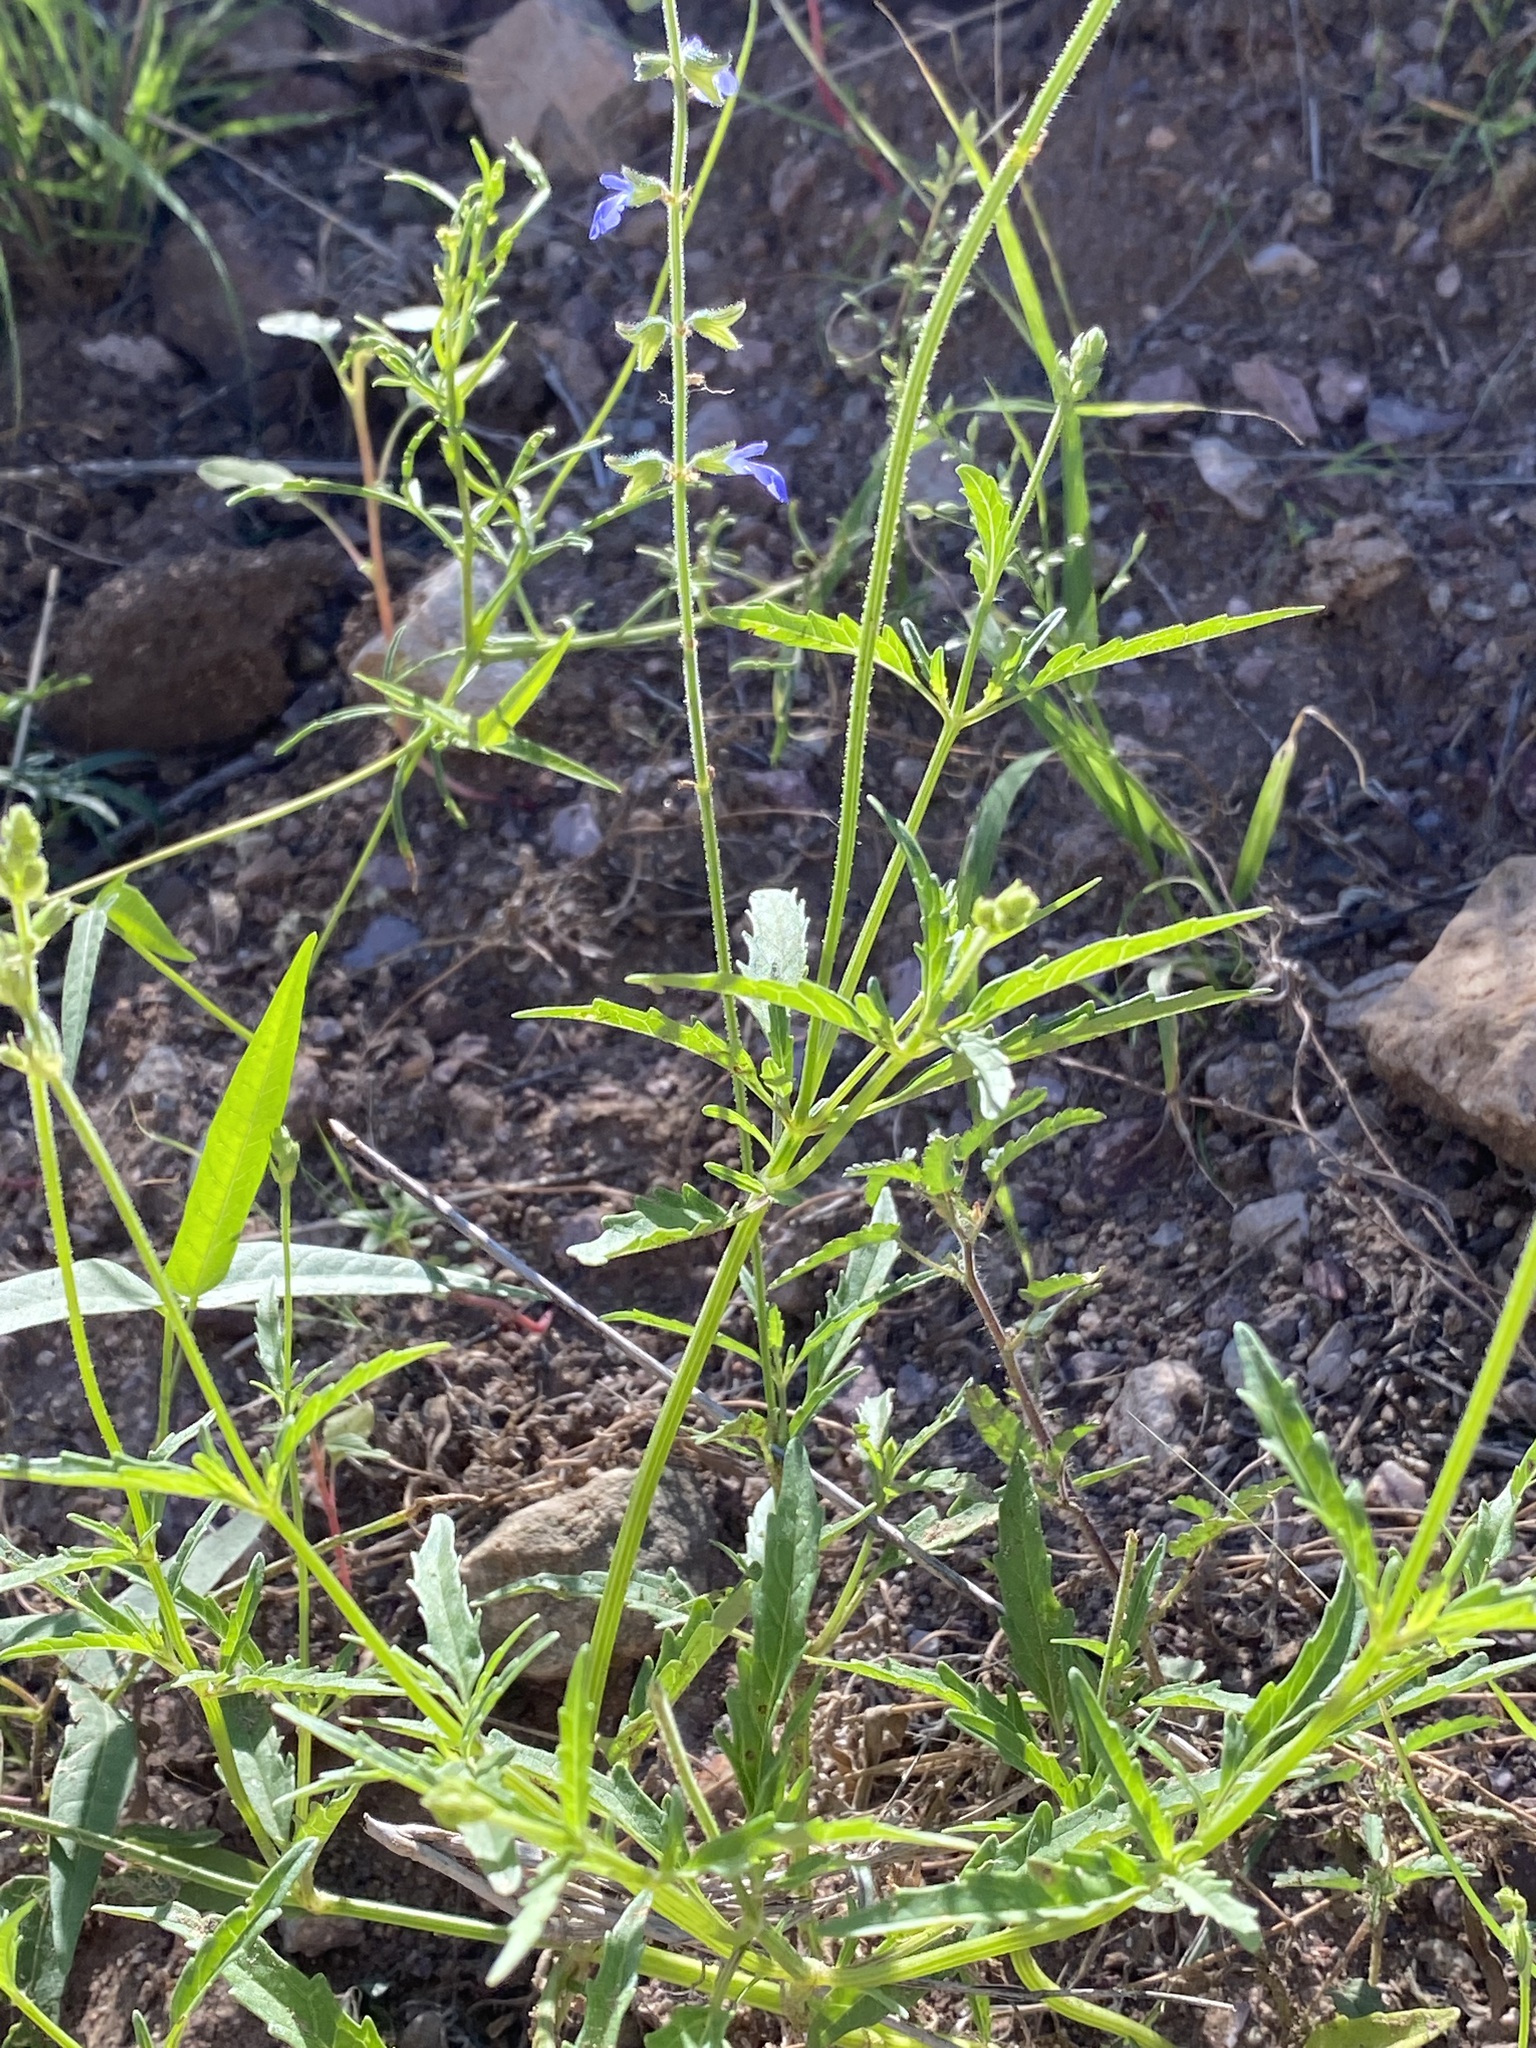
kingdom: Plantae
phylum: Tracheophyta
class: Magnoliopsida
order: Lamiales
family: Lamiaceae
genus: Salvia
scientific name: Salvia subincisa
